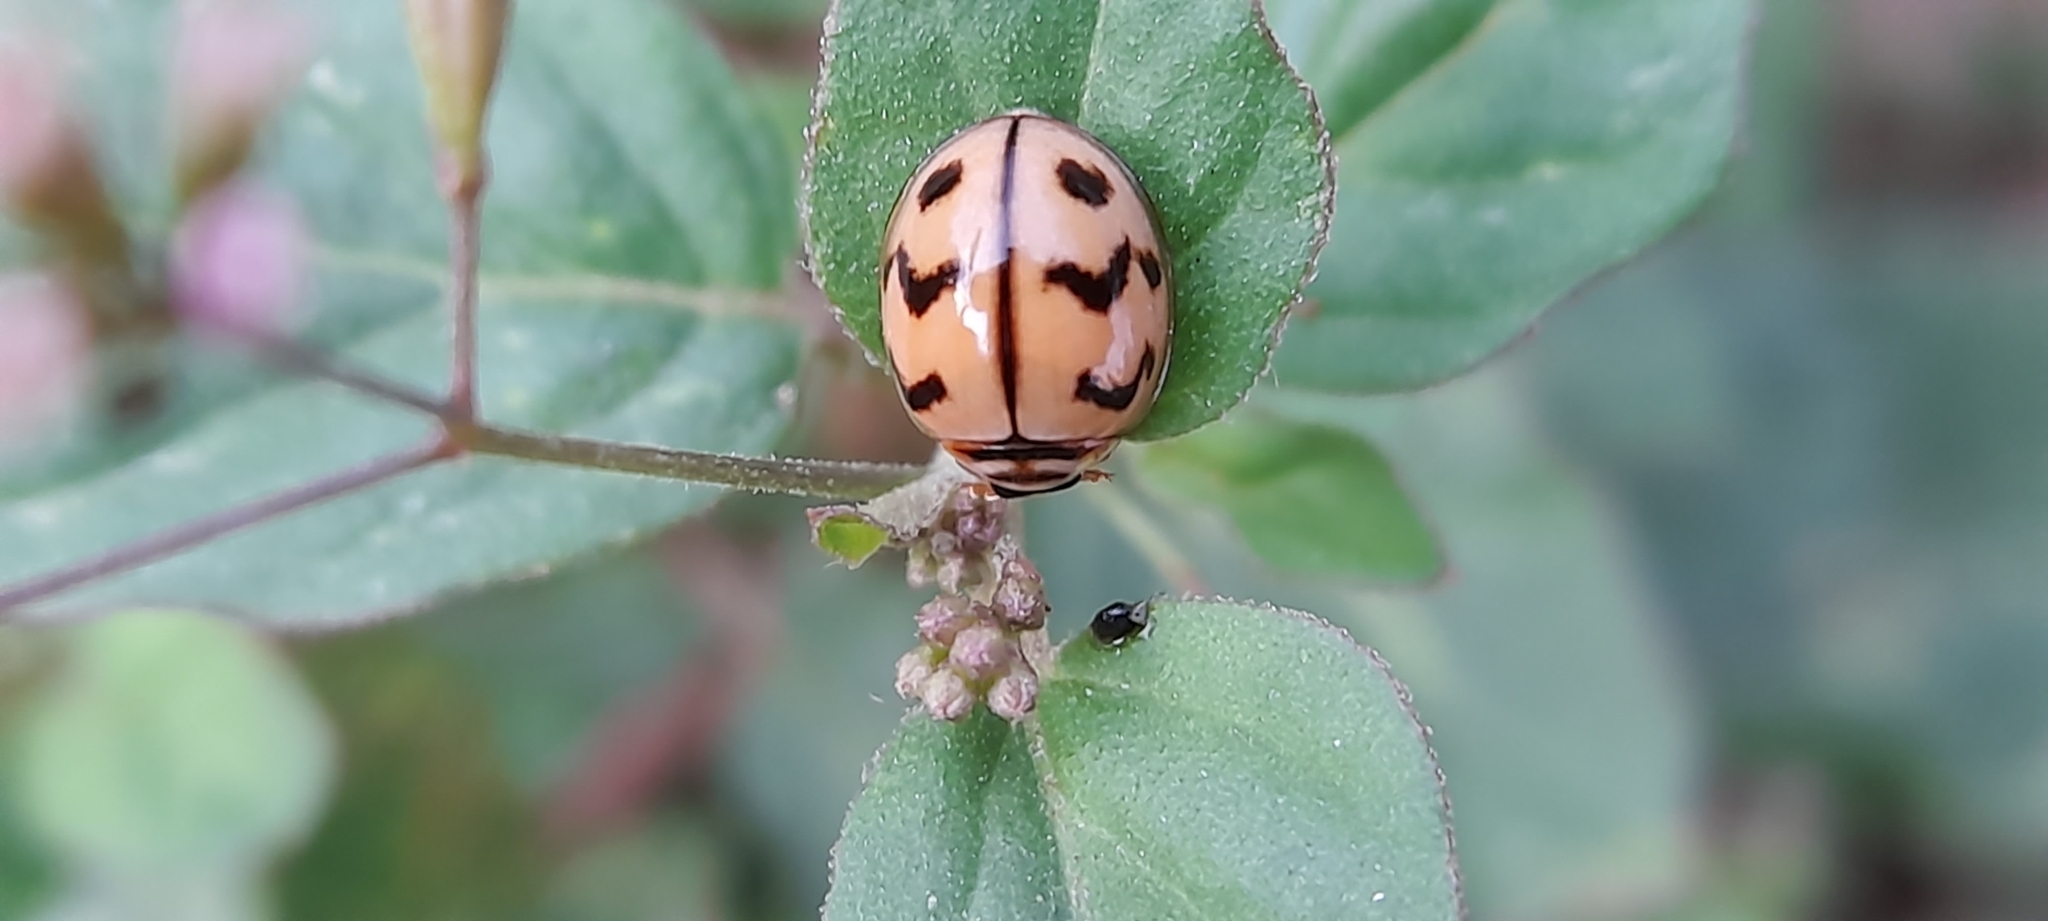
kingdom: Animalia
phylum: Arthropoda
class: Insecta
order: Coleoptera
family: Coccinellidae
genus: Cheilomenes
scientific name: Cheilomenes sexmaculata
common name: Ladybird beetle
